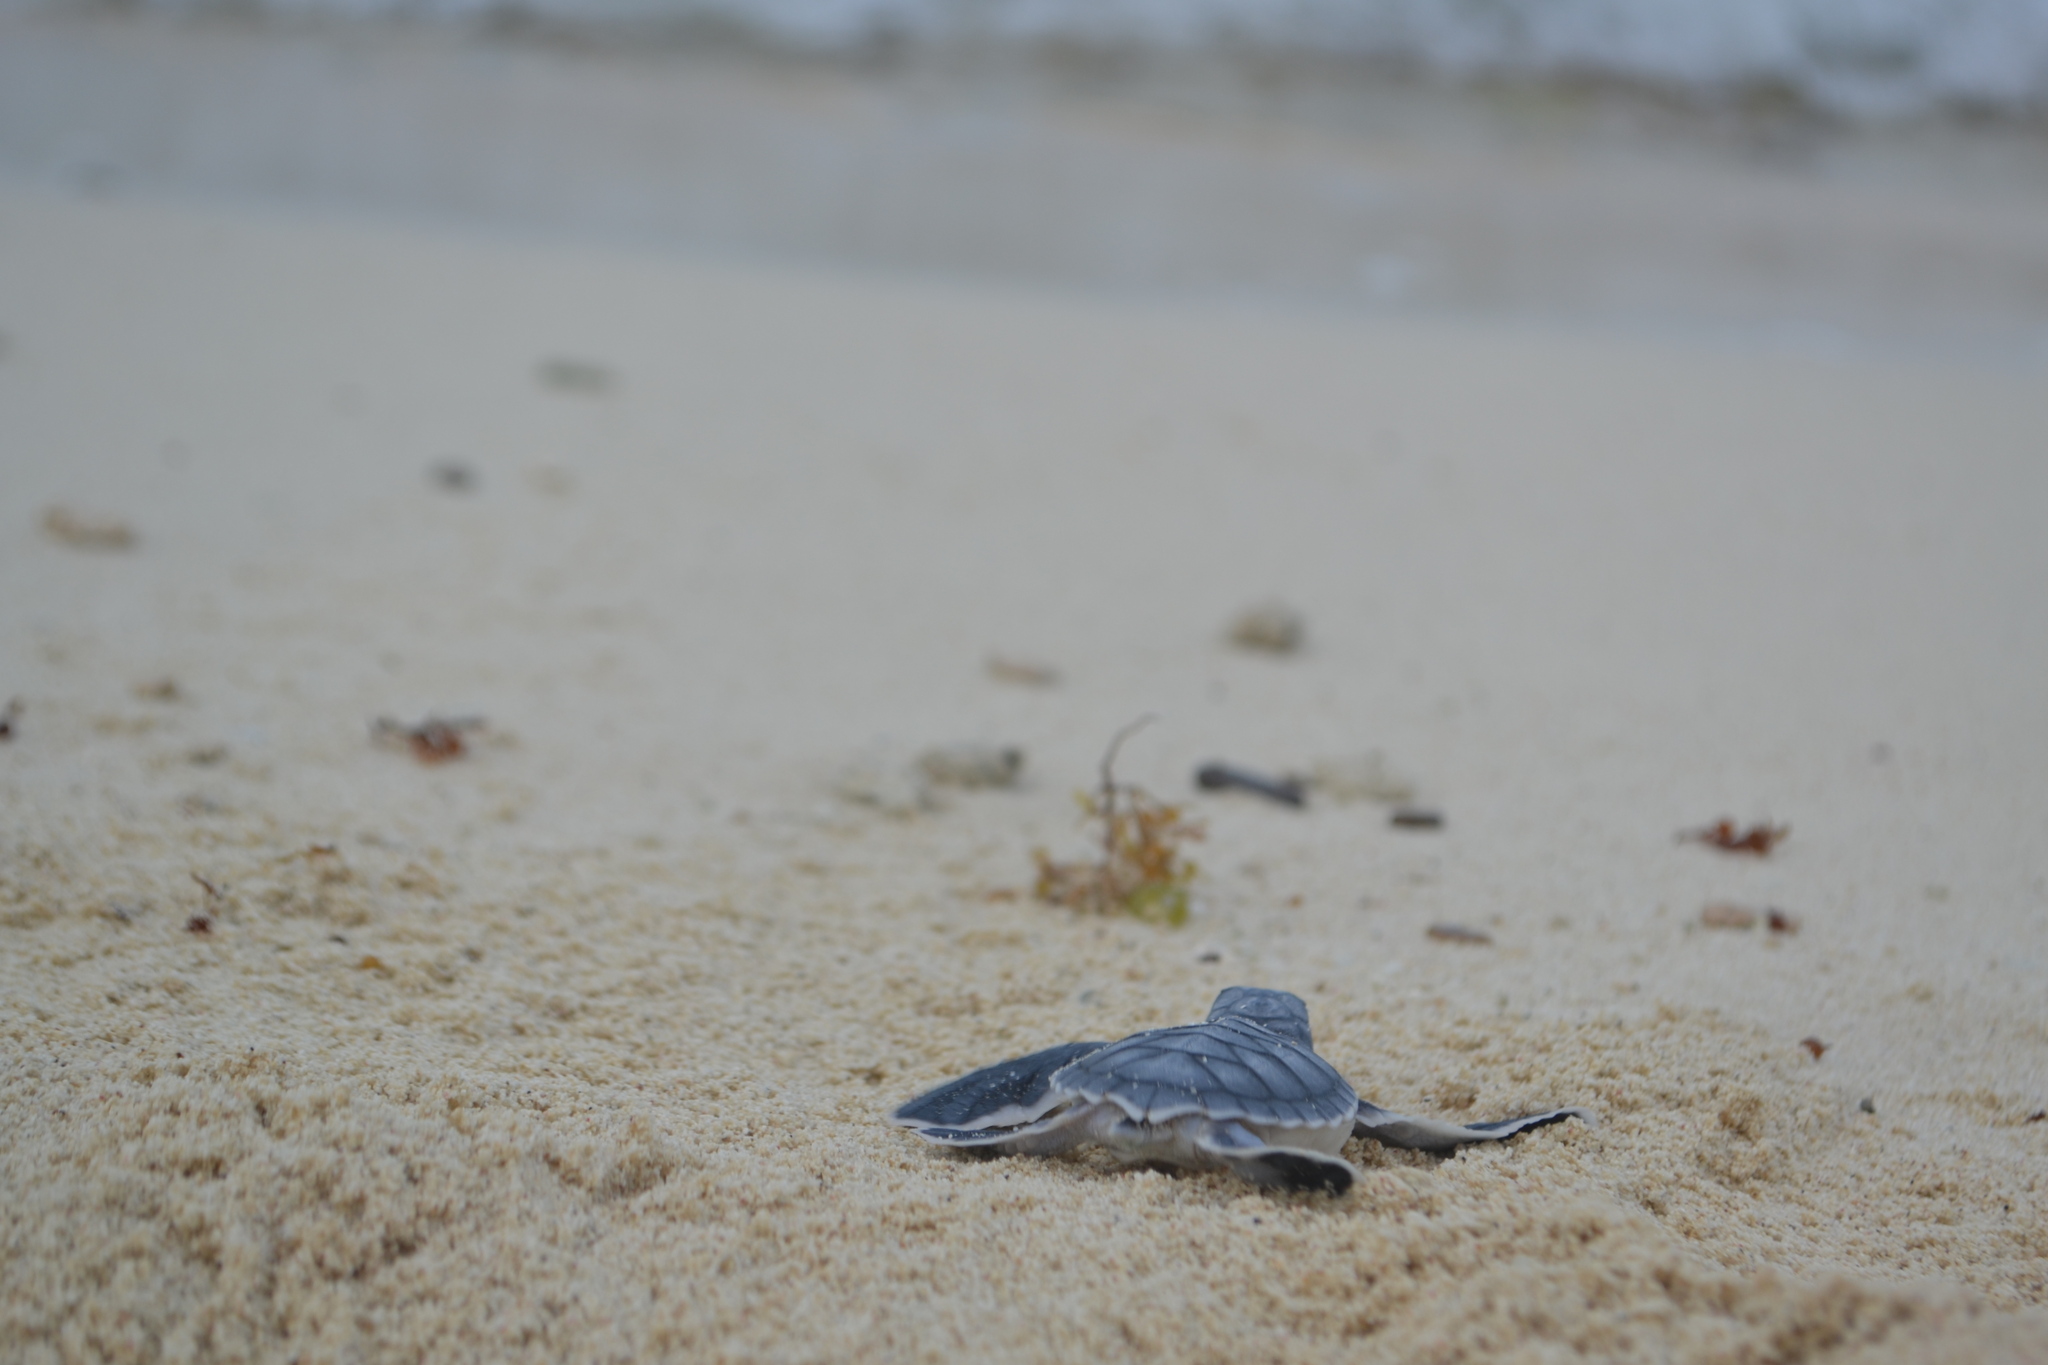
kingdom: Animalia
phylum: Chordata
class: Testudines
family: Cheloniidae
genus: Chelonia
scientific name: Chelonia mydas
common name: Green turtle
